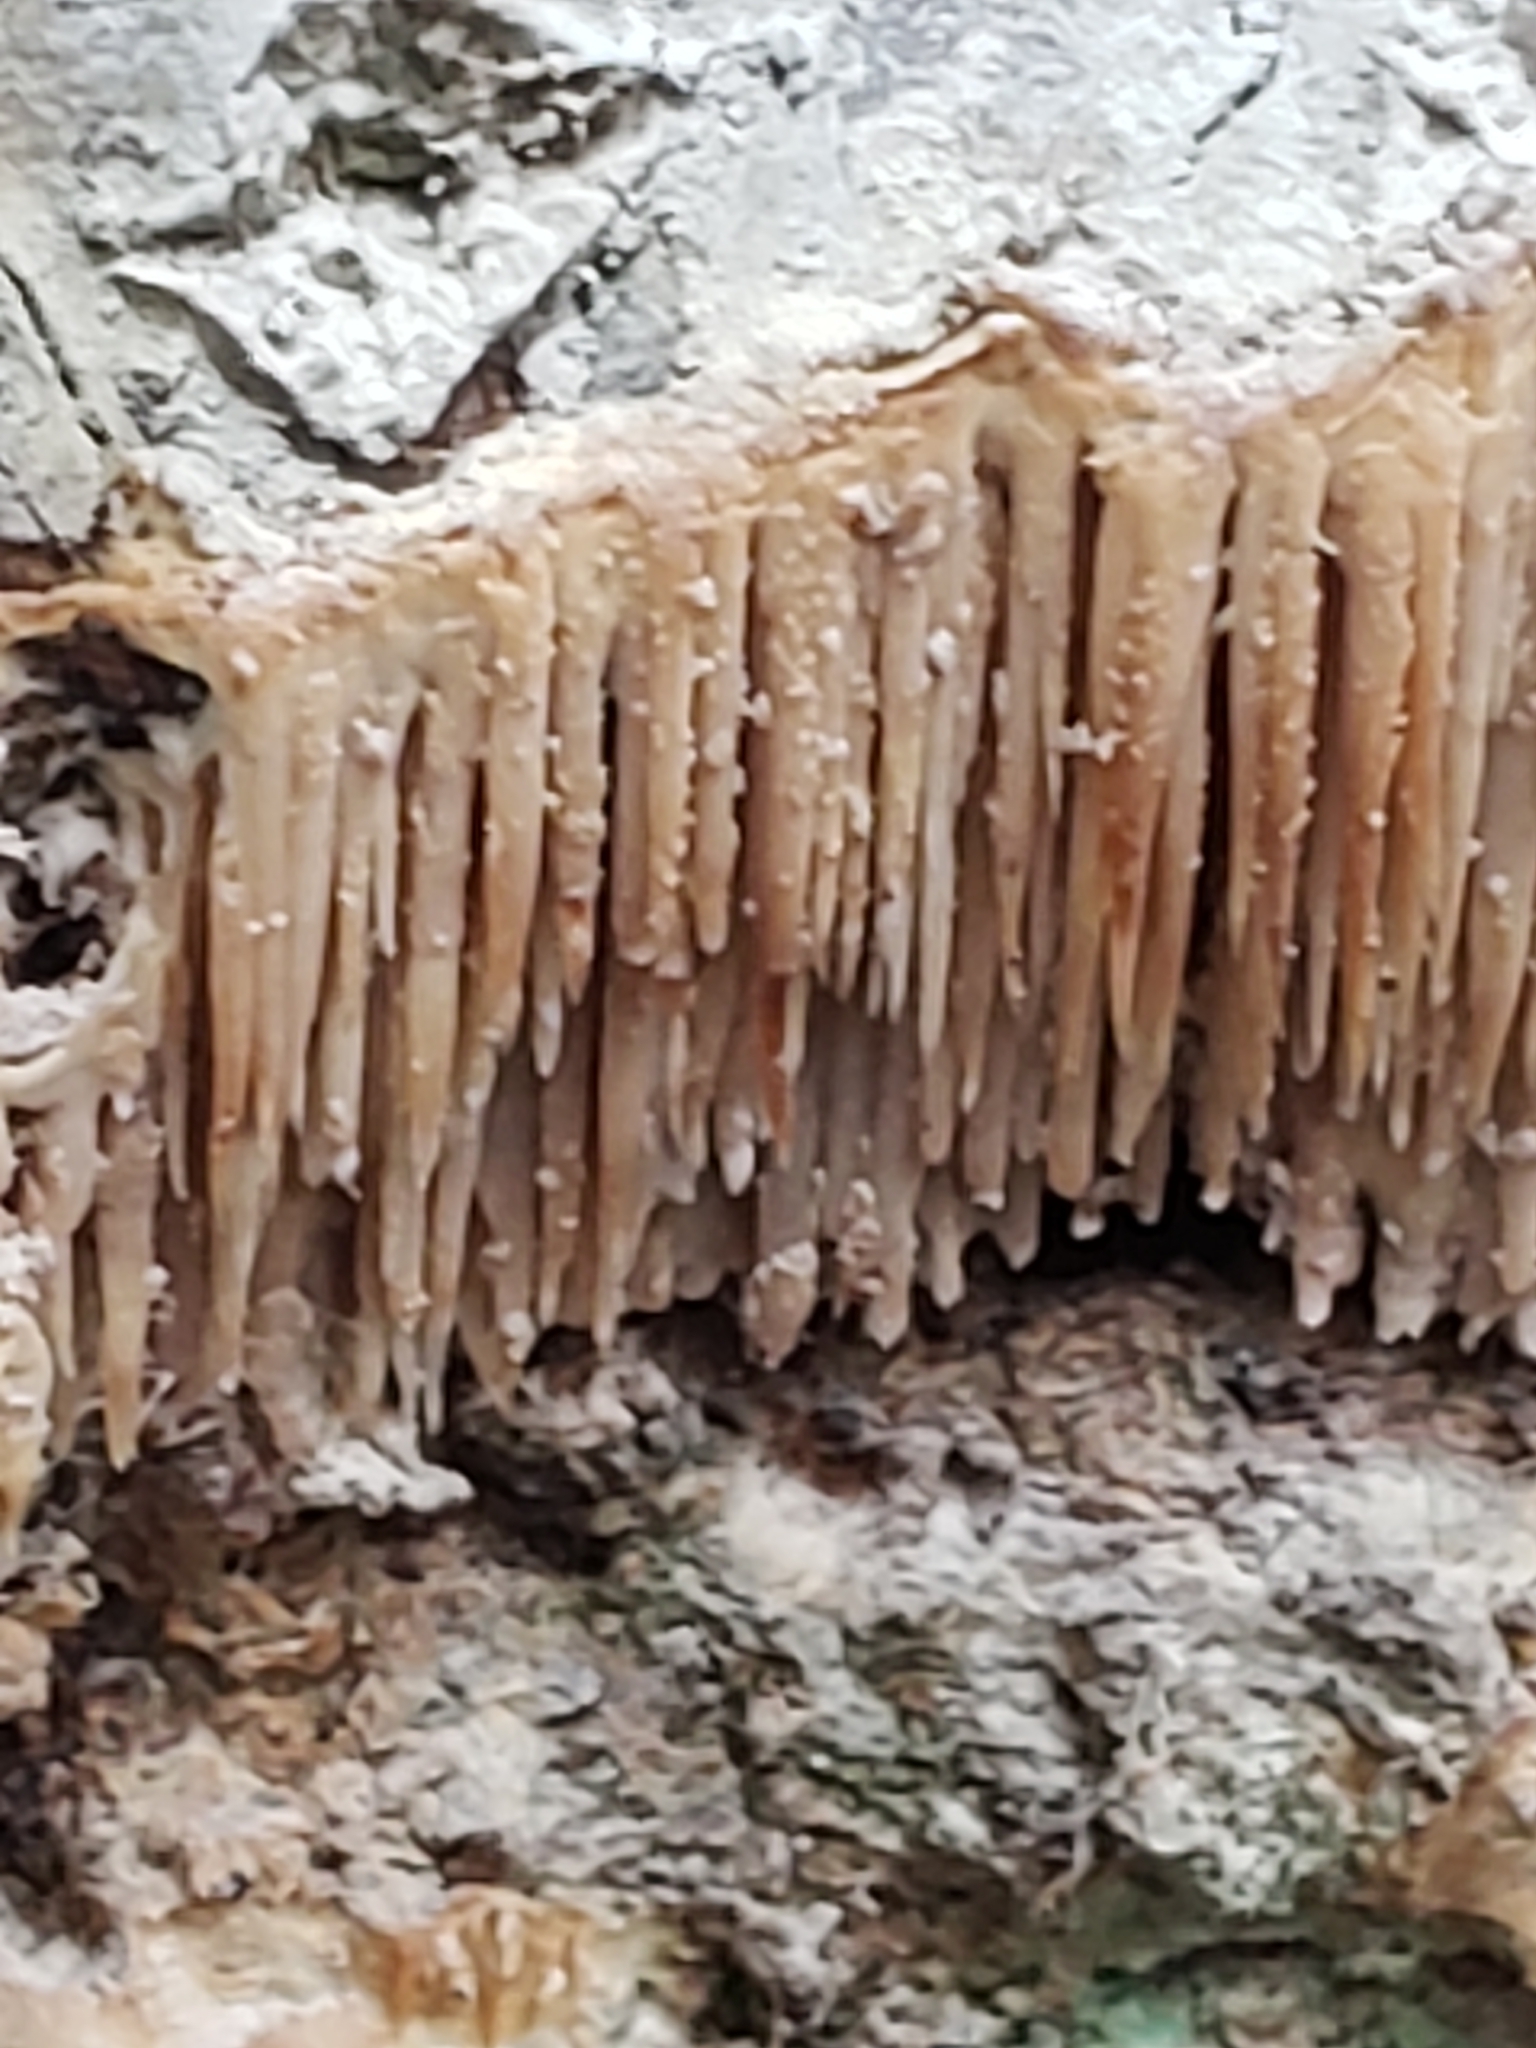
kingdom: Fungi
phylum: Basidiomycota
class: Agaricomycetes
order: Agaricales
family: Radulomycetaceae
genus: Radulomyces
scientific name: Radulomyces copelandii
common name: Asian beauty
